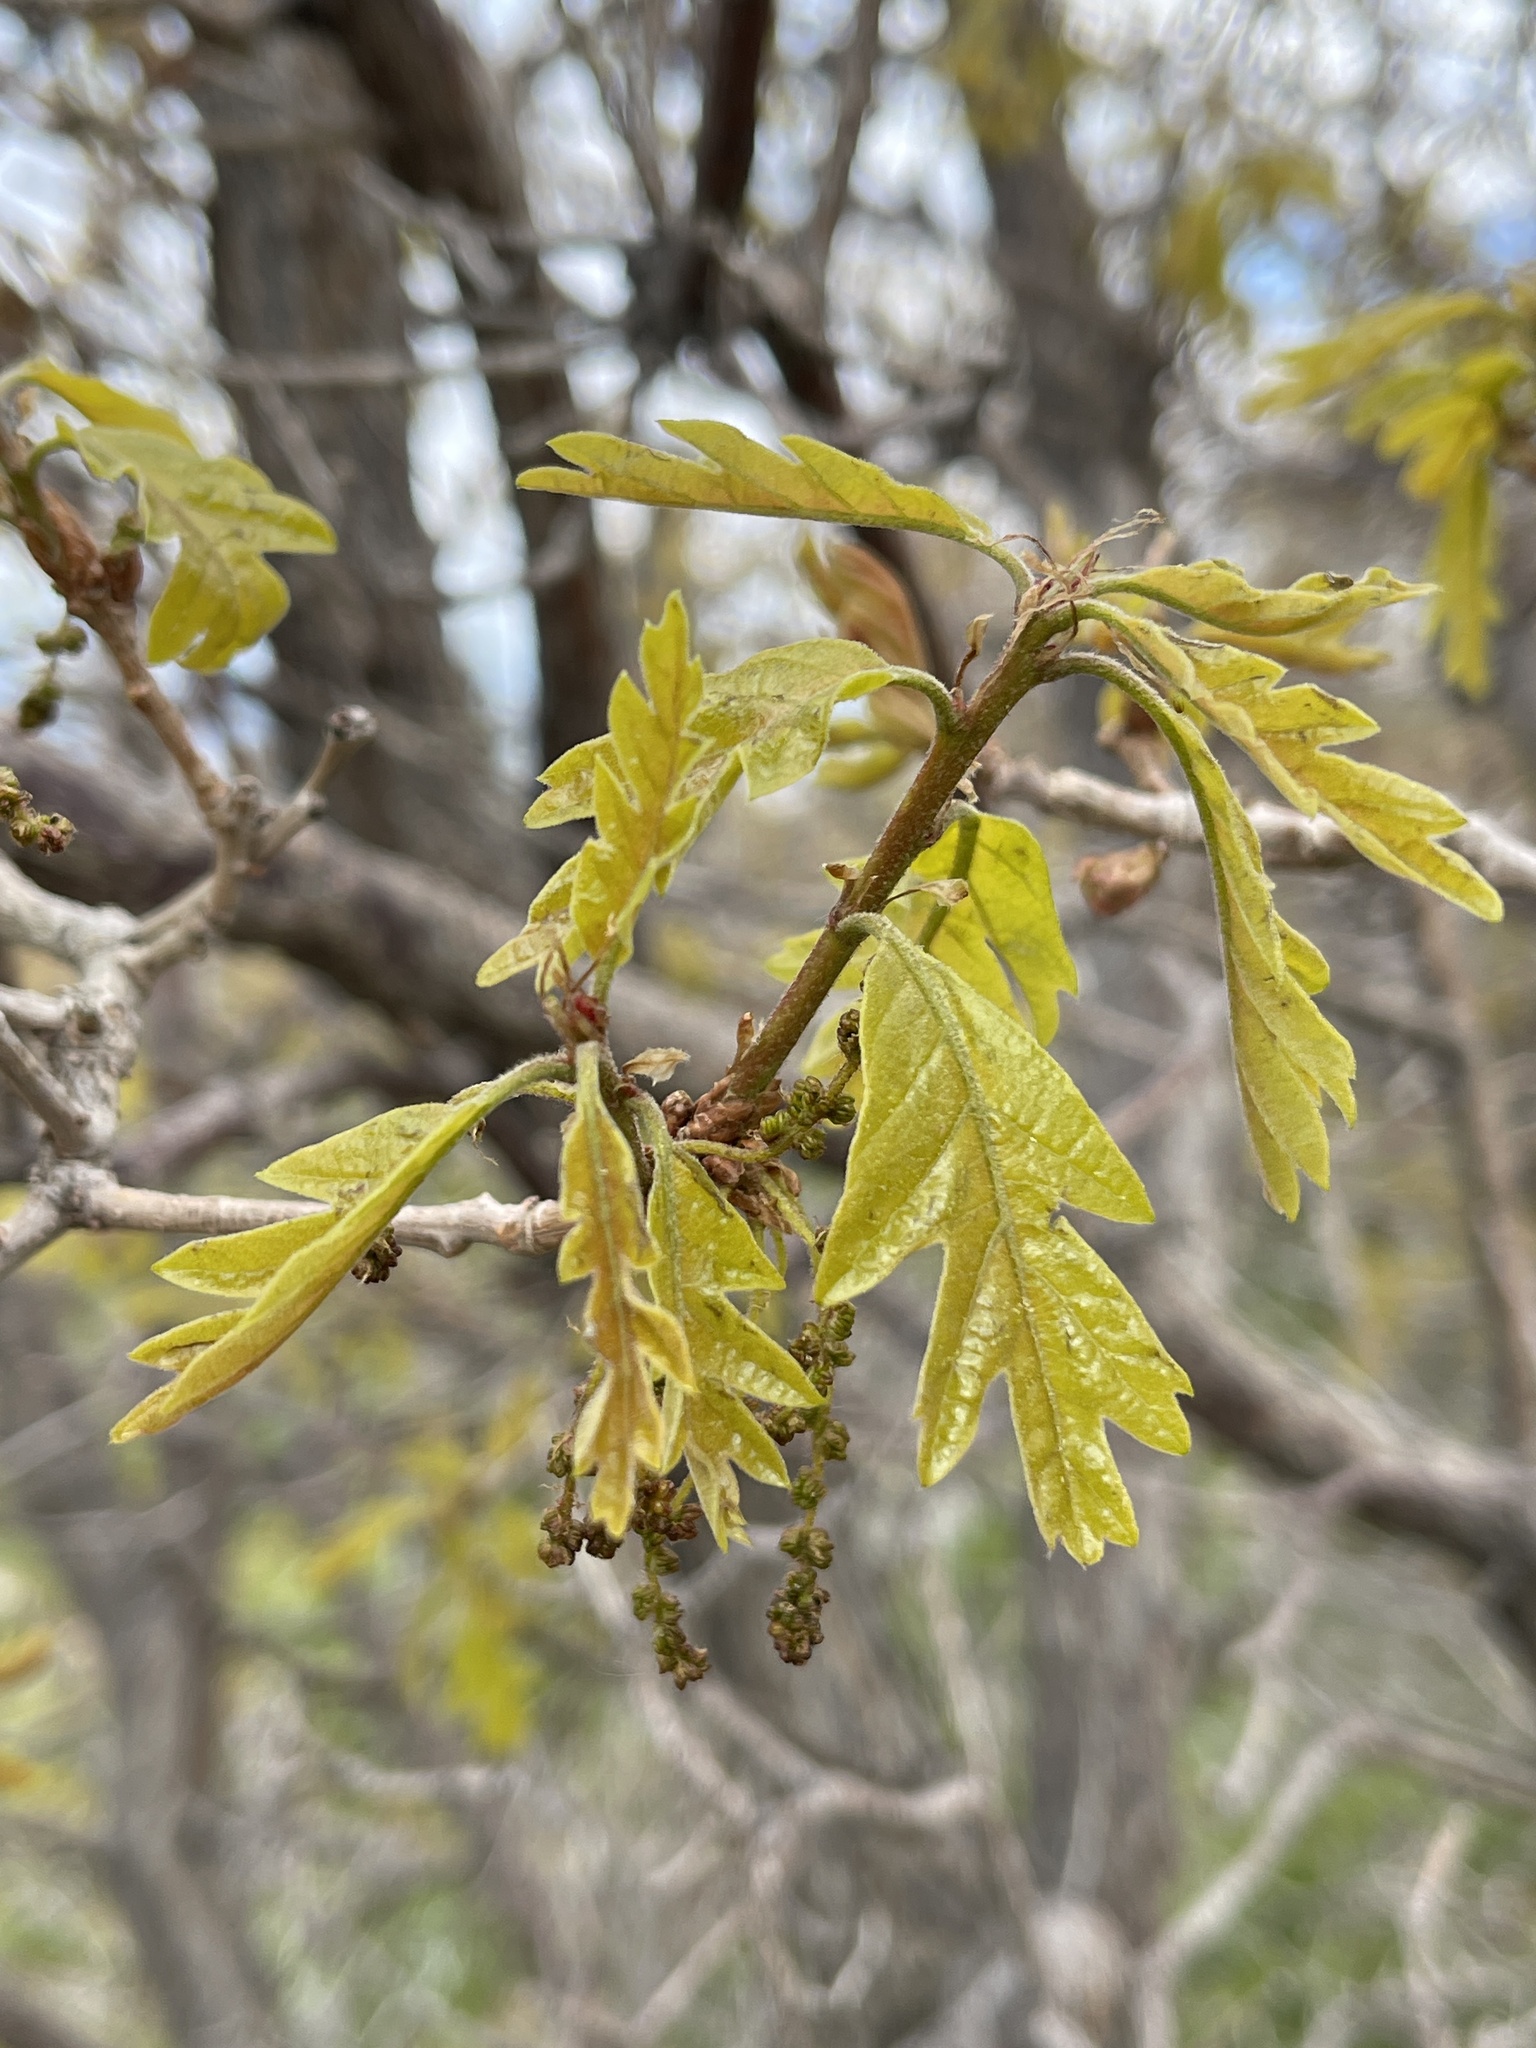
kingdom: Plantae
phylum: Tracheophyta
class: Magnoliopsida
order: Fagales
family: Fagaceae
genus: Quercus
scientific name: Quercus gambelii
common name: Gambel oak
